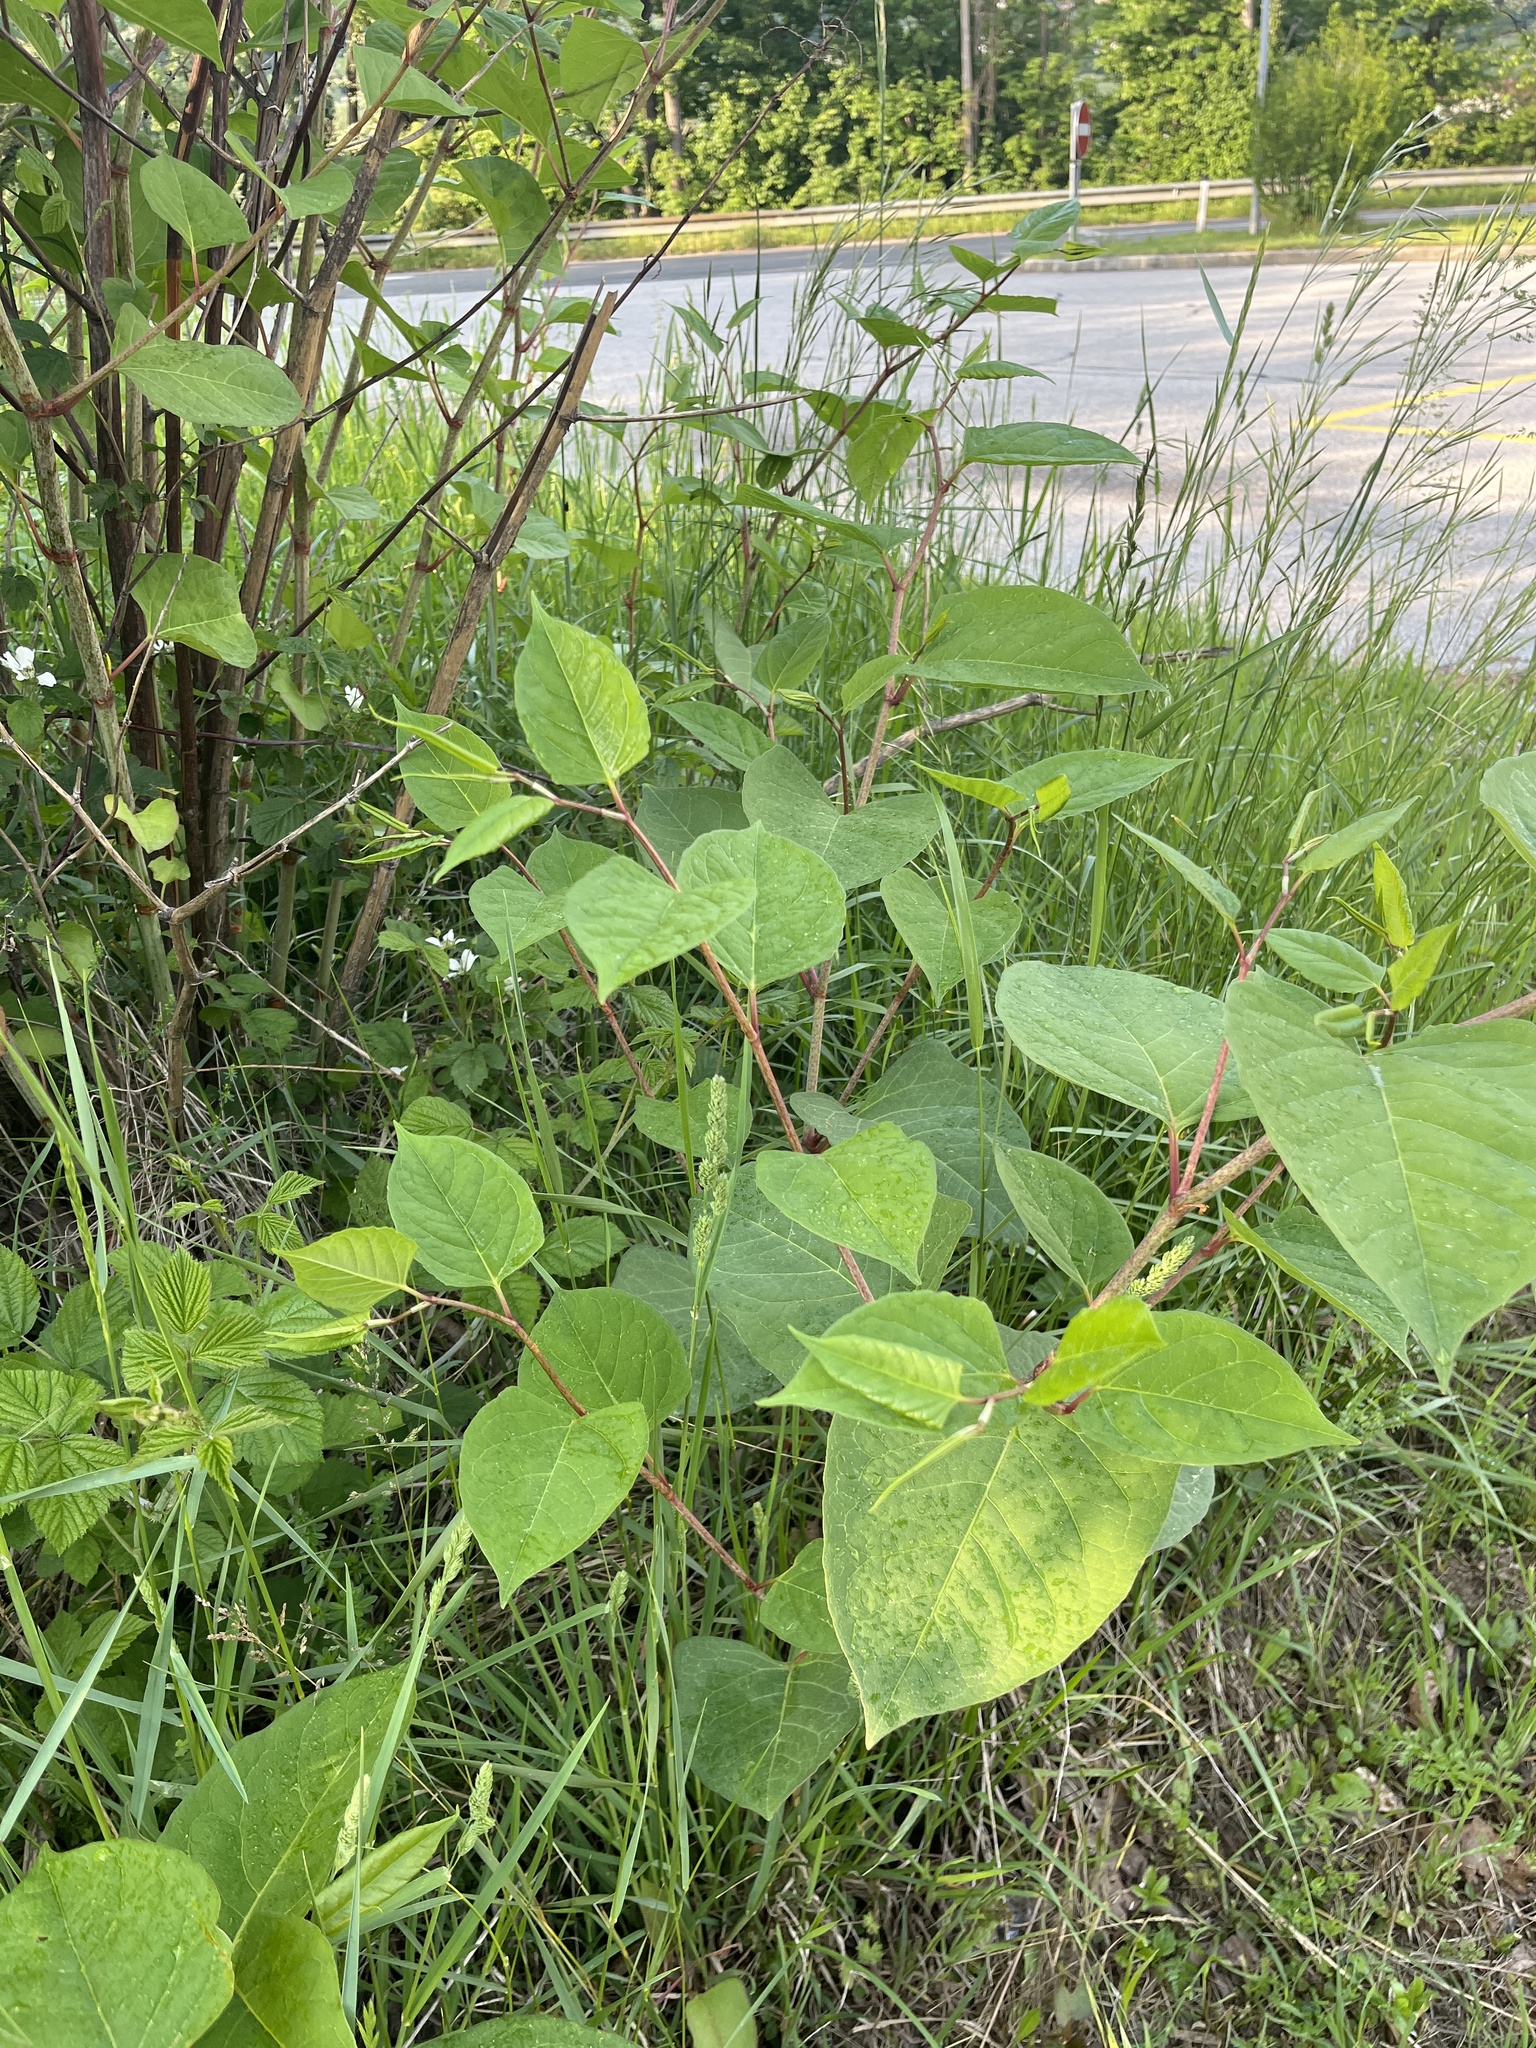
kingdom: Plantae
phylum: Tracheophyta
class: Magnoliopsida
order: Caryophyllales
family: Polygonaceae
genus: Reynoutria
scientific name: Reynoutria japonica
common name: Japanese knotweed
